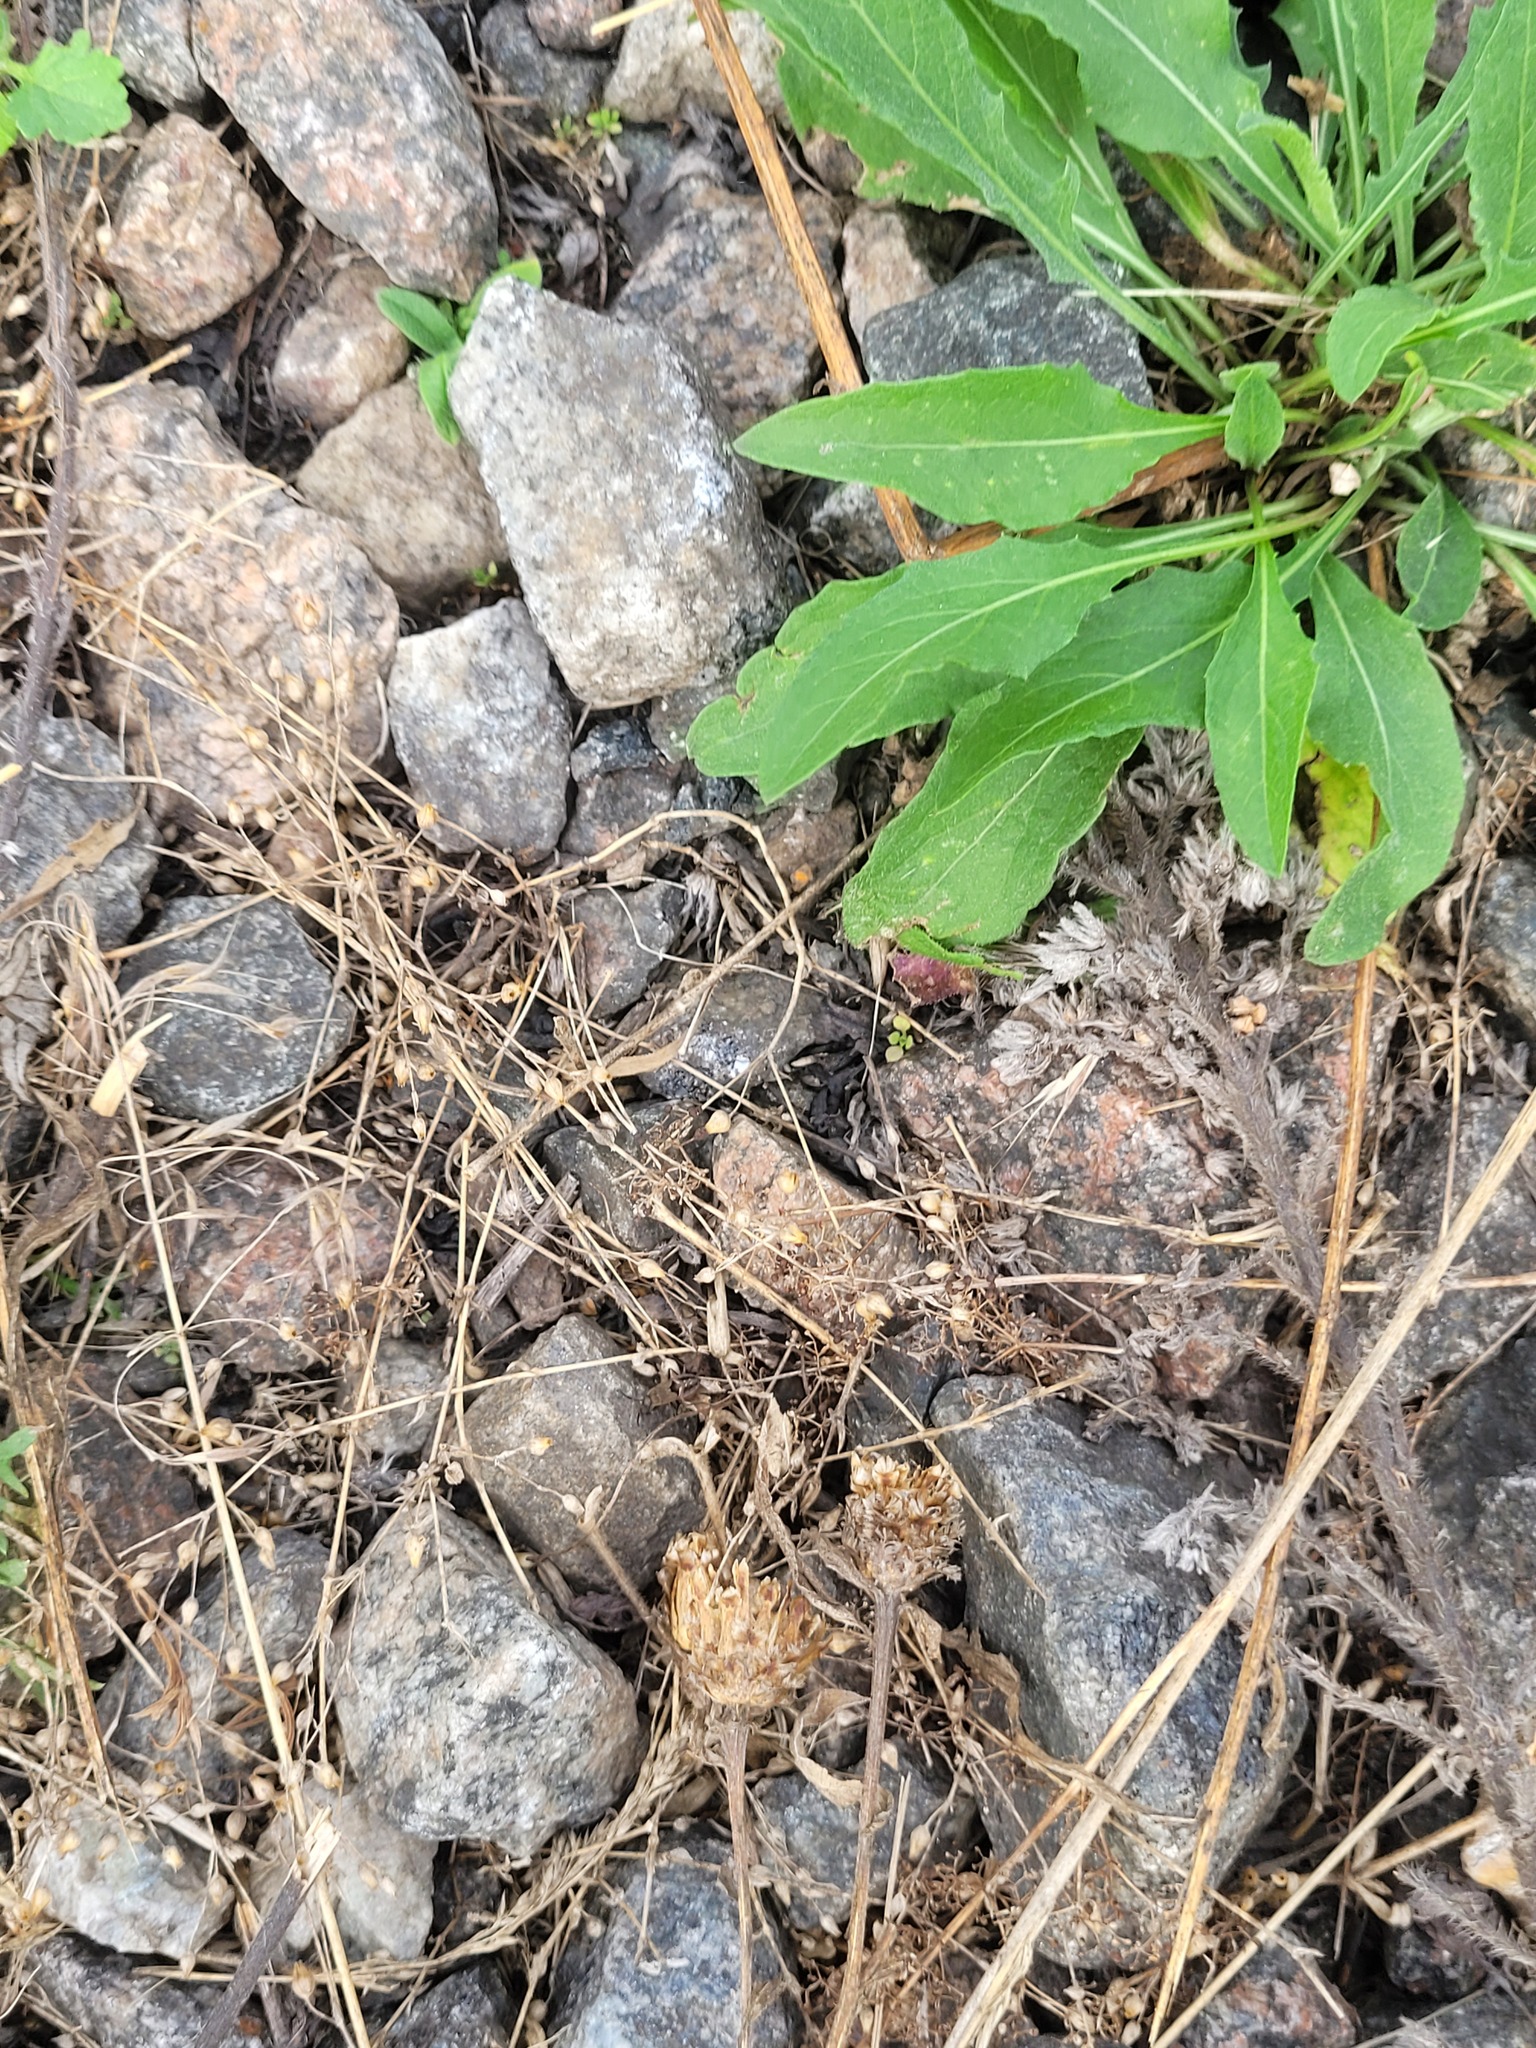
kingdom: Plantae
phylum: Tracheophyta
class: Magnoliopsida
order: Caryophyllales
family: Caryophyllaceae
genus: Arenaria
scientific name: Arenaria serpyllifolia
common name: Thyme-leaved sandwort
